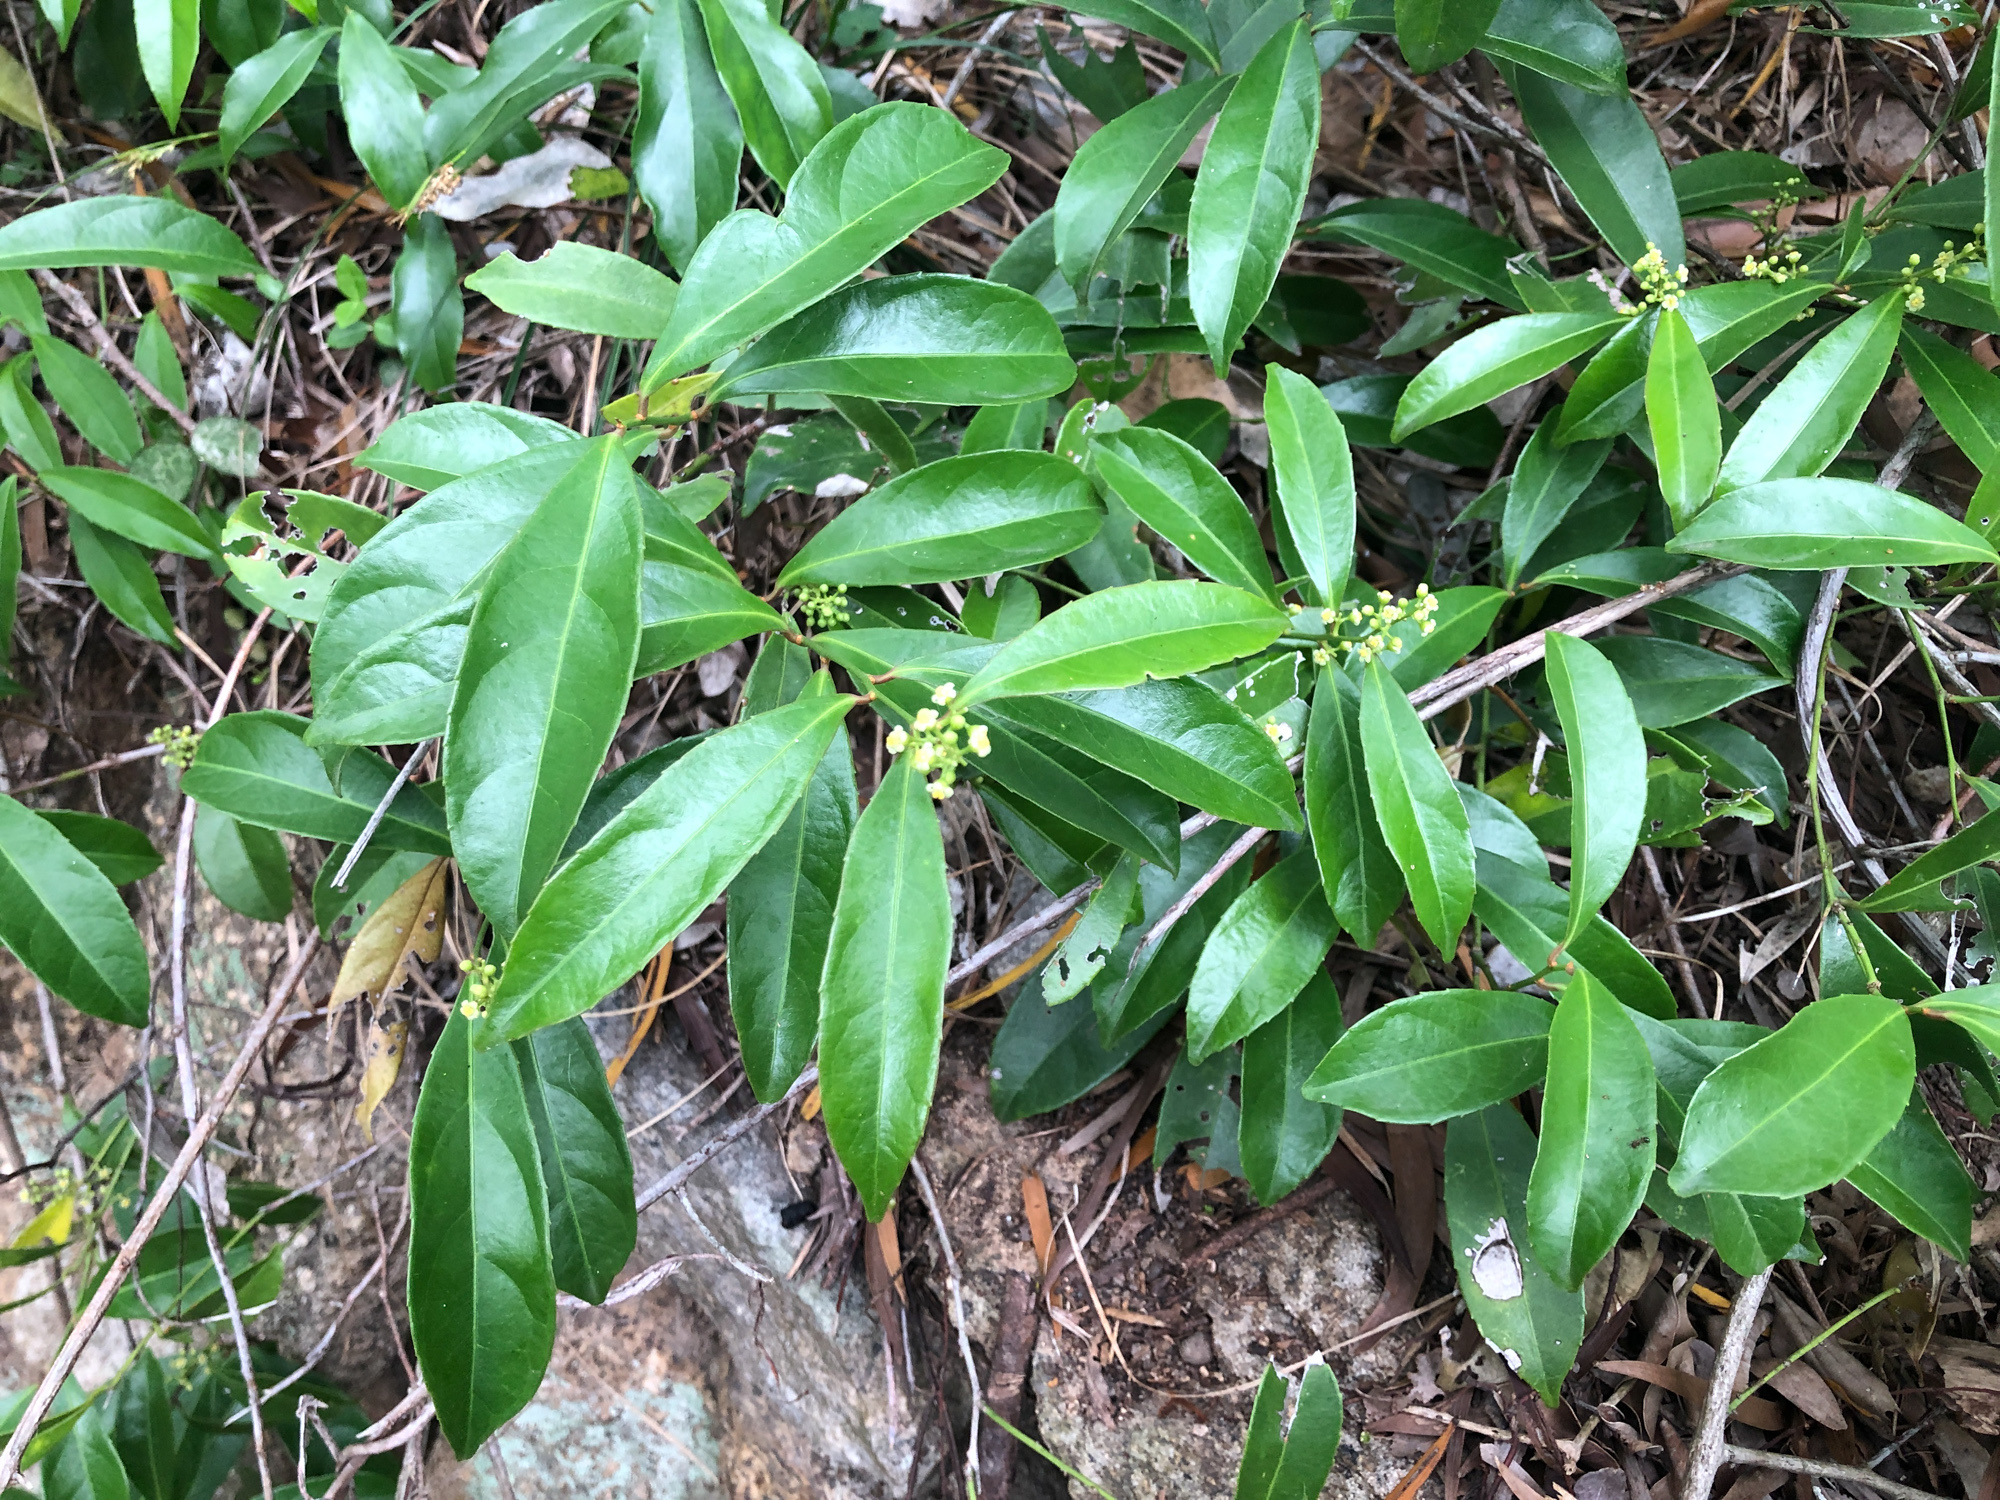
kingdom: Plantae
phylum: Tracheophyta
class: Magnoliopsida
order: Celastrales
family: Celastraceae
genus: Celastrus
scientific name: Celastrus hindsii
